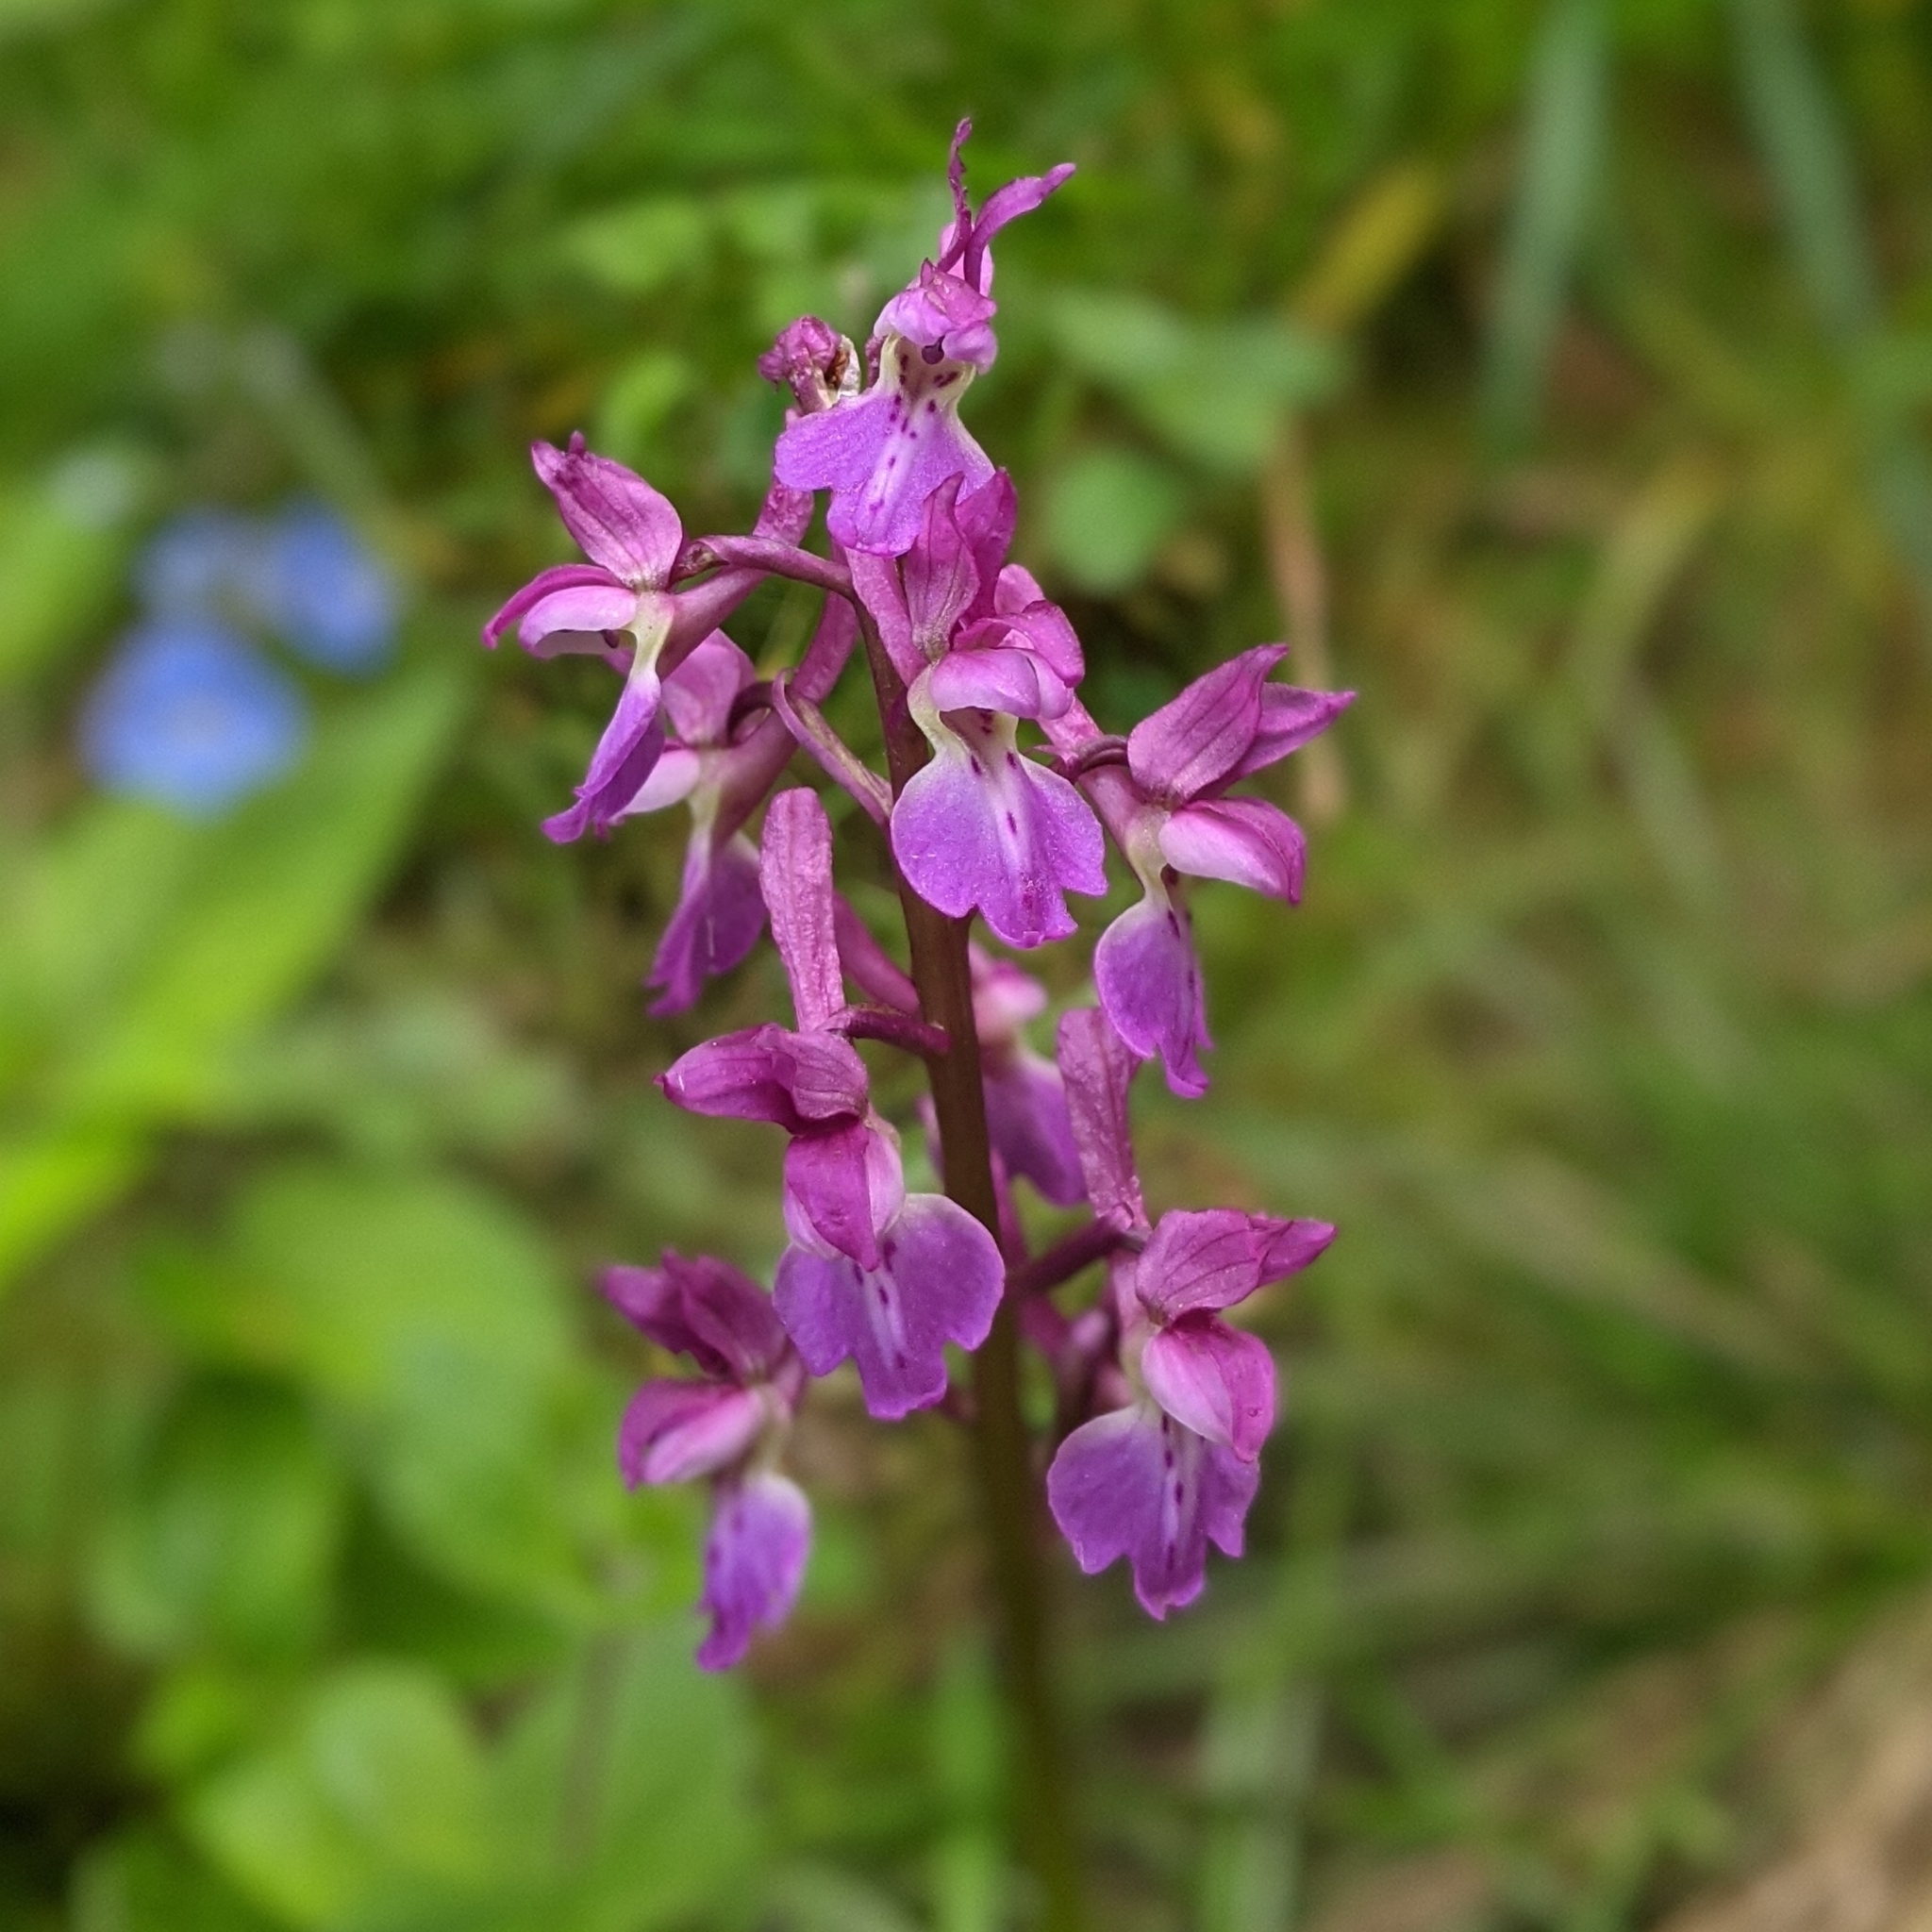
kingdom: Plantae
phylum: Tracheophyta
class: Liliopsida
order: Asparagales
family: Orchidaceae
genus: Orchis
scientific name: Orchis mascula
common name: Early-purple orchid
